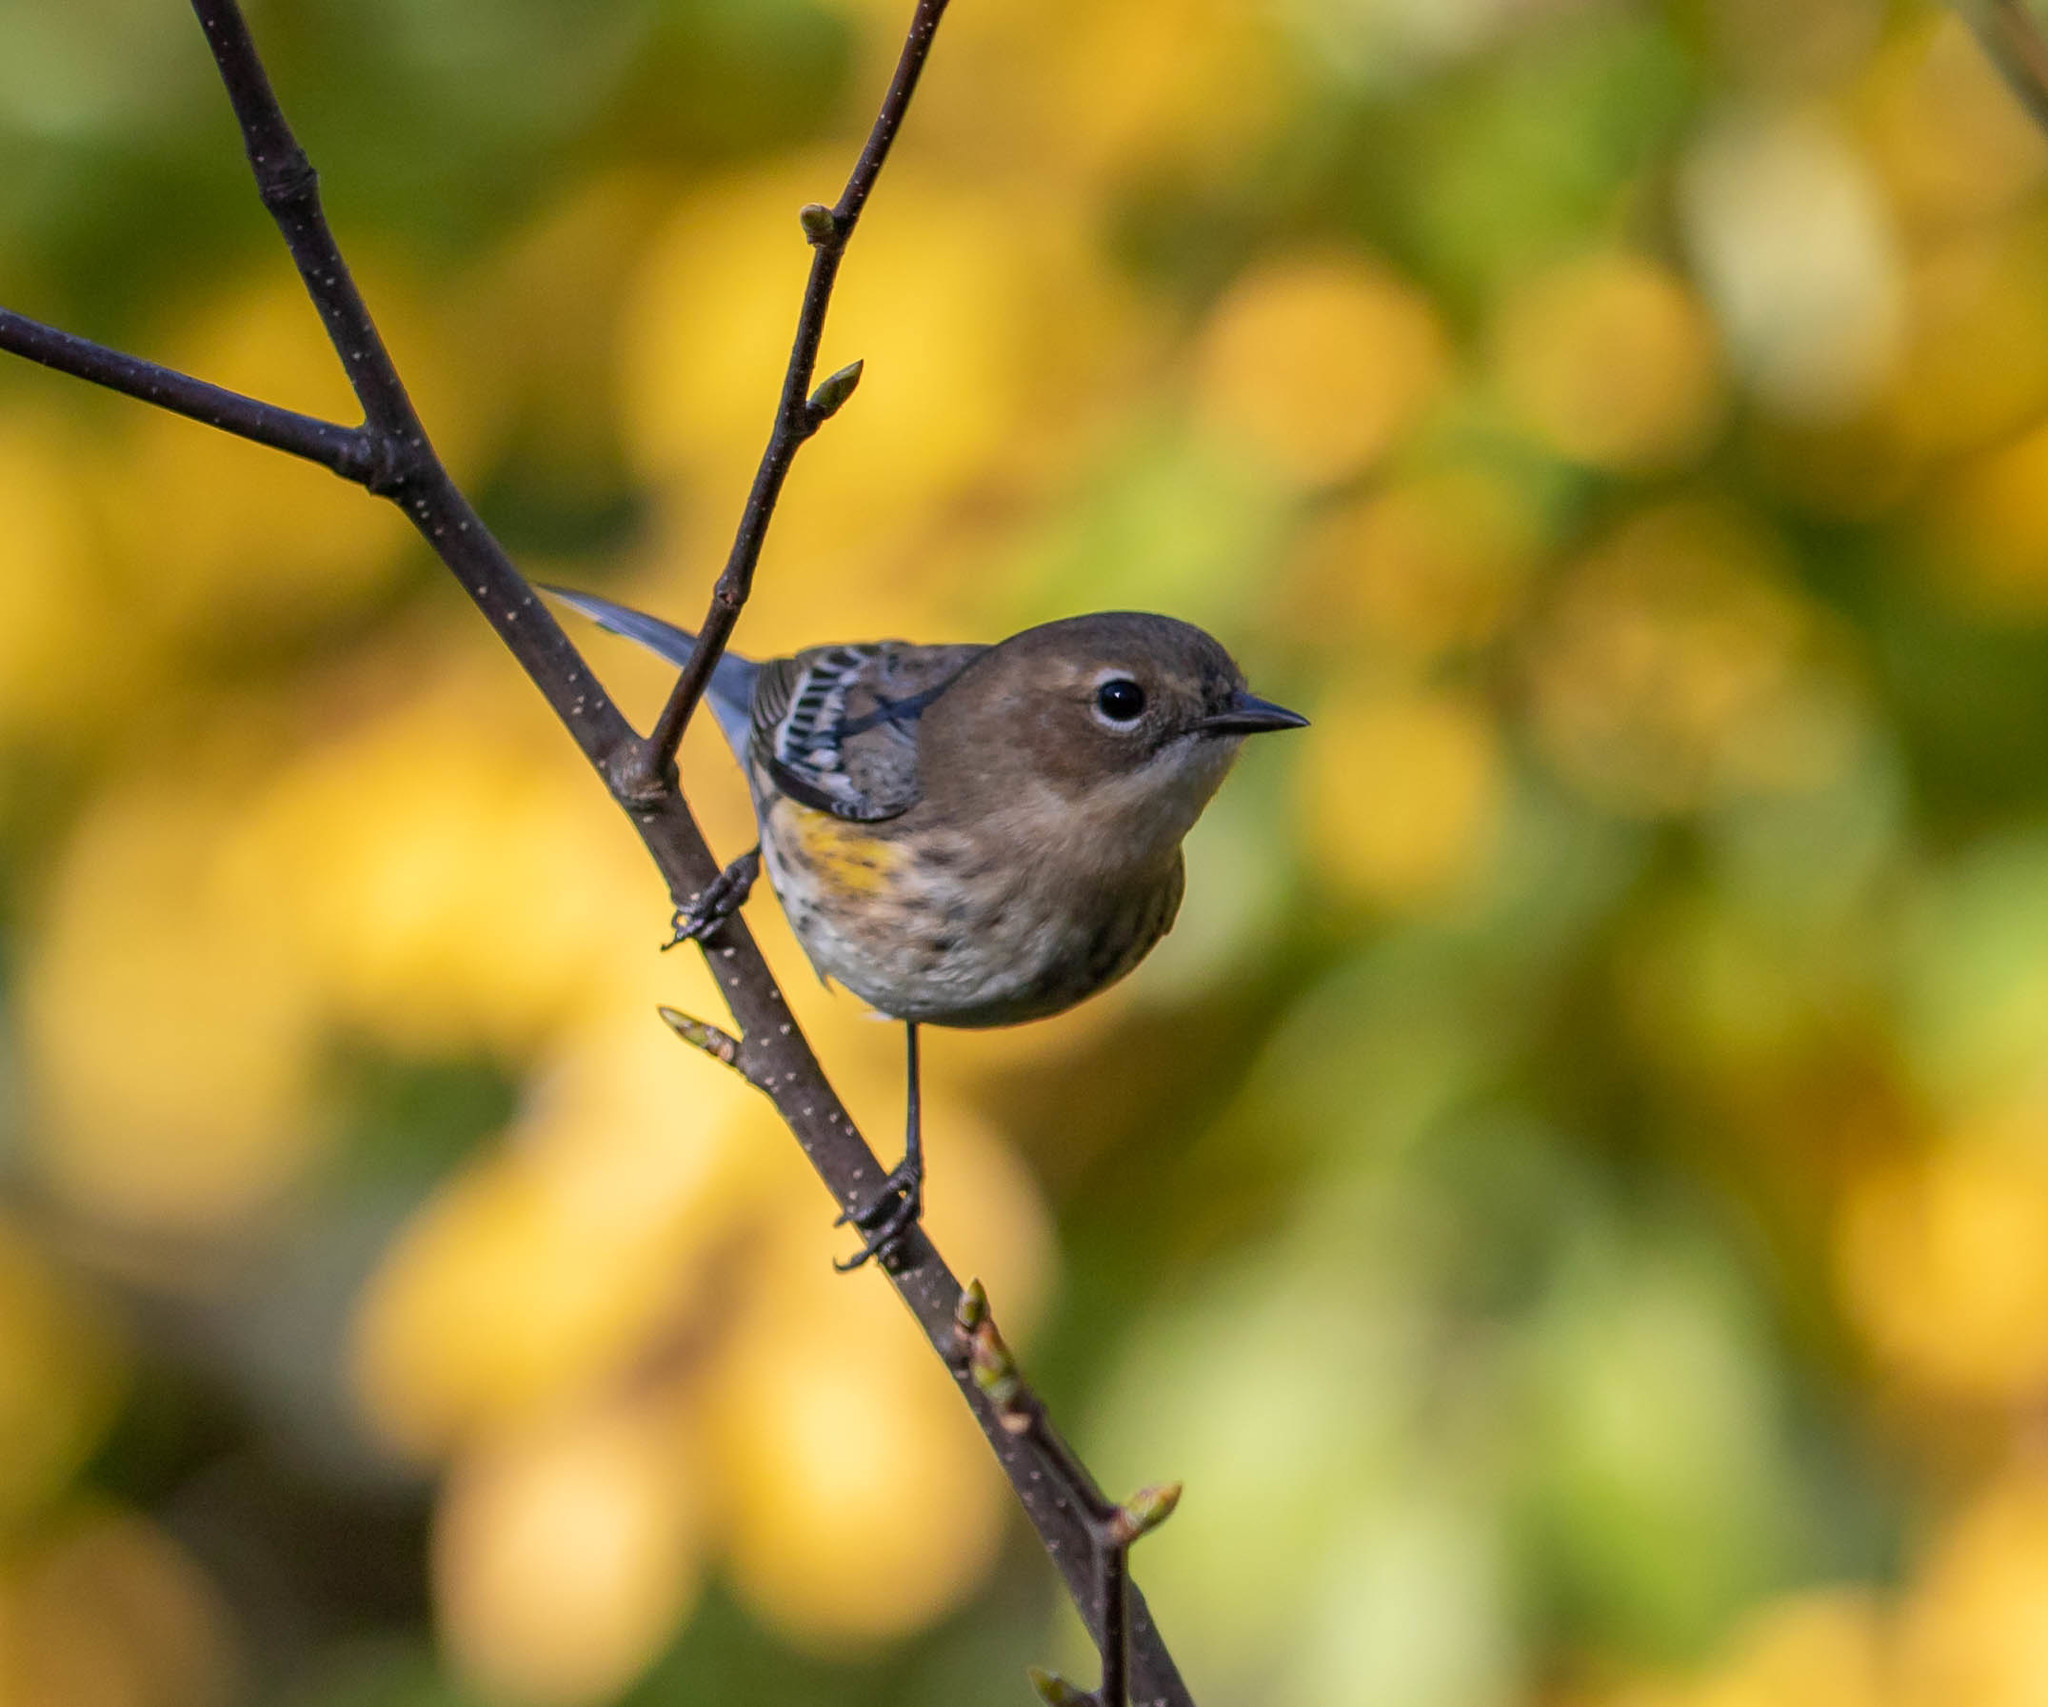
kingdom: Animalia
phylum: Chordata
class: Aves
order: Passeriformes
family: Parulidae
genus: Setophaga
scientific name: Setophaga coronata
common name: Myrtle warbler
